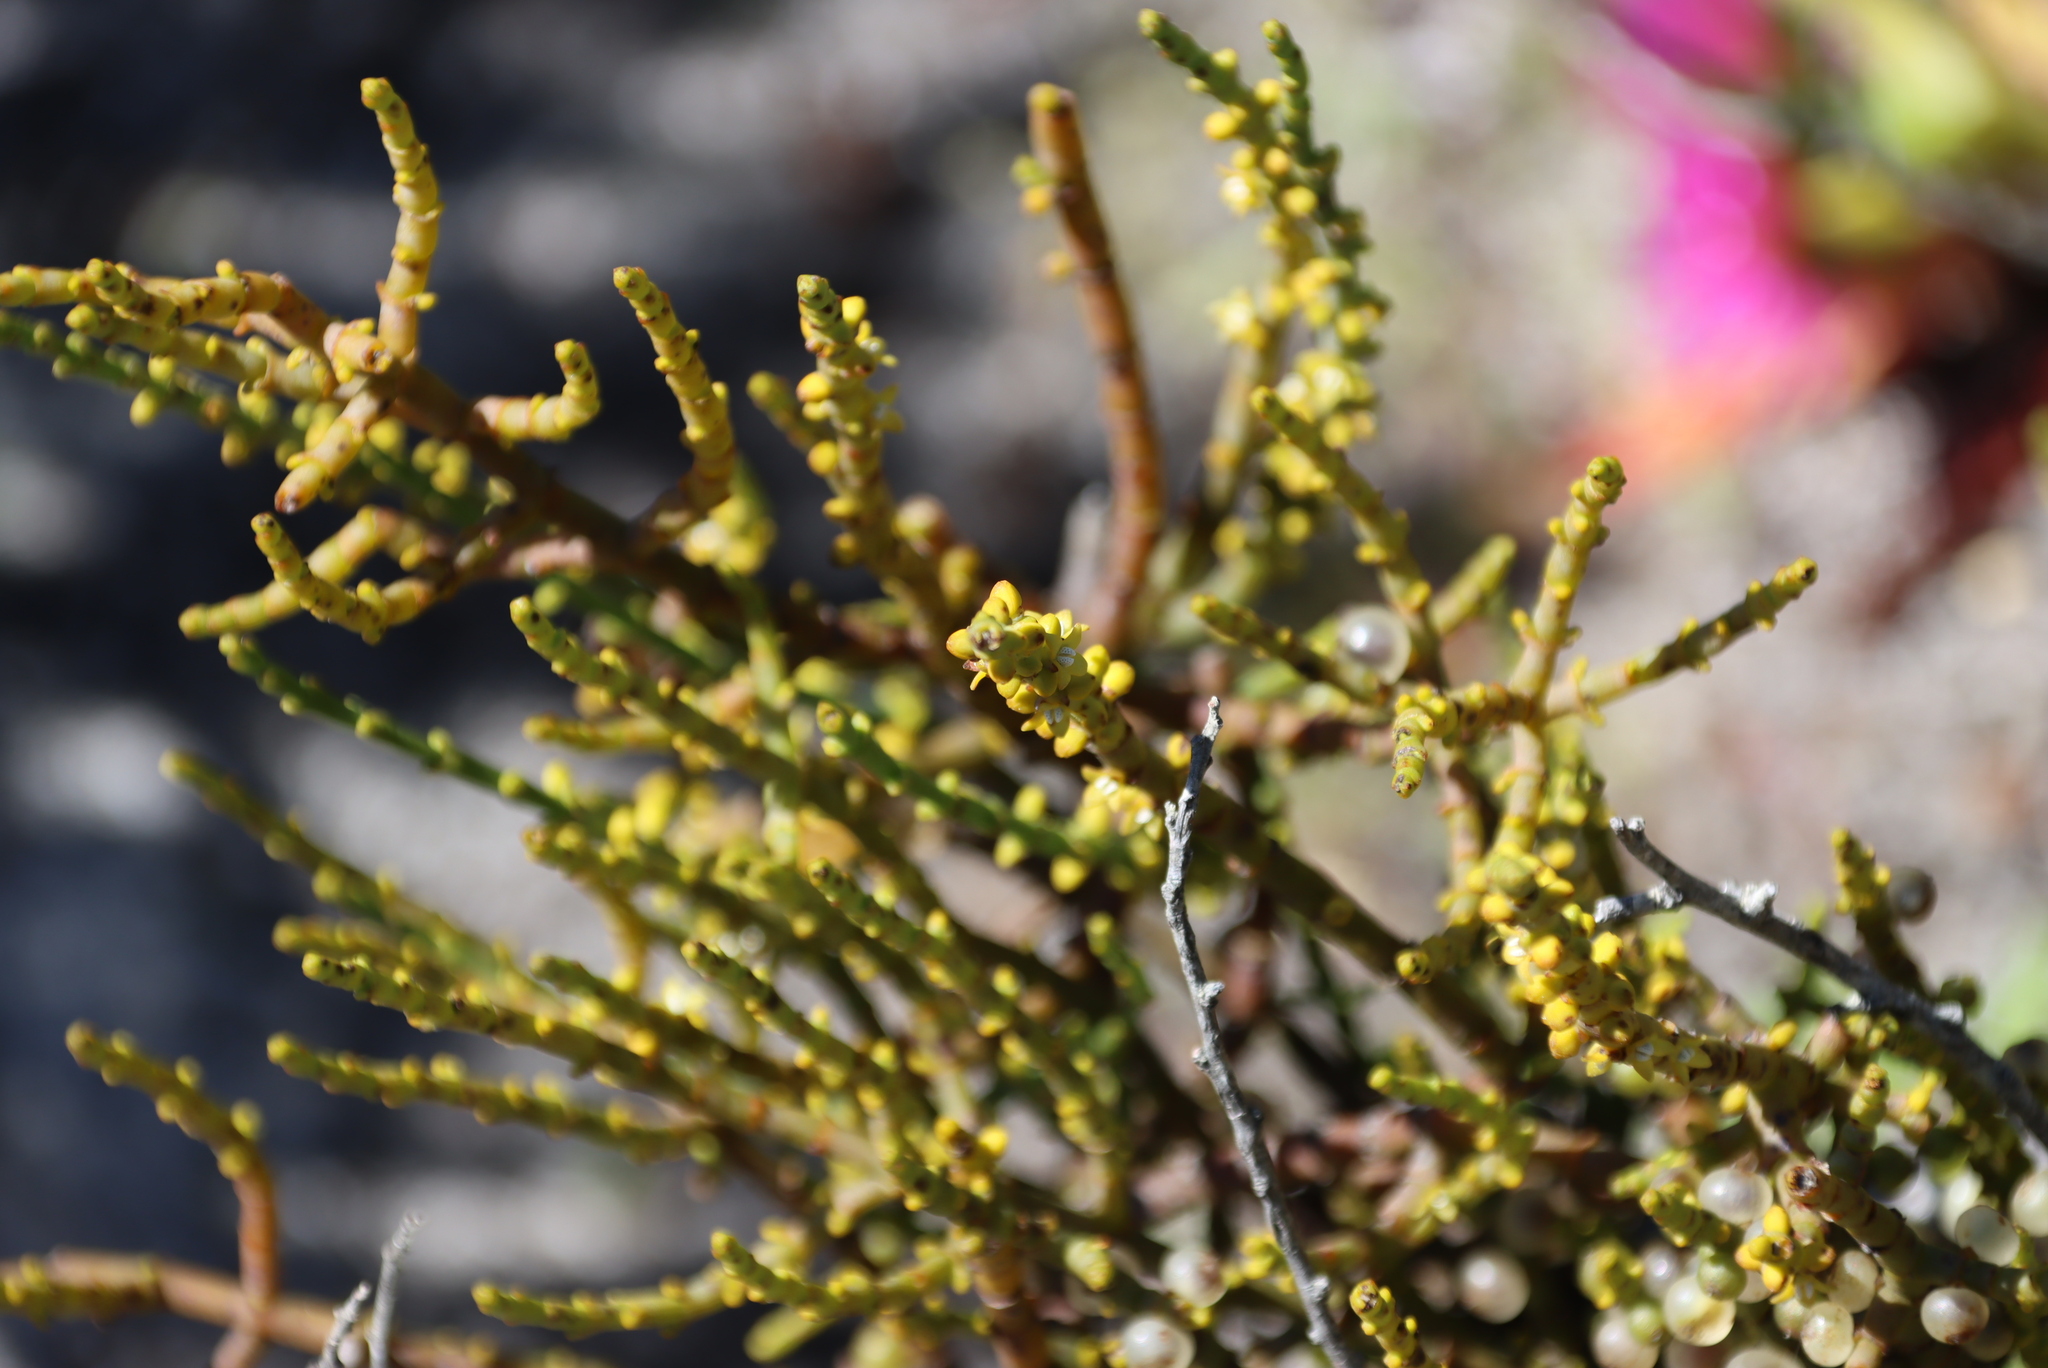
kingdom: Plantae
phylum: Tracheophyta
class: Magnoliopsida
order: Santalales
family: Viscaceae
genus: Viscum
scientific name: Viscum capense
